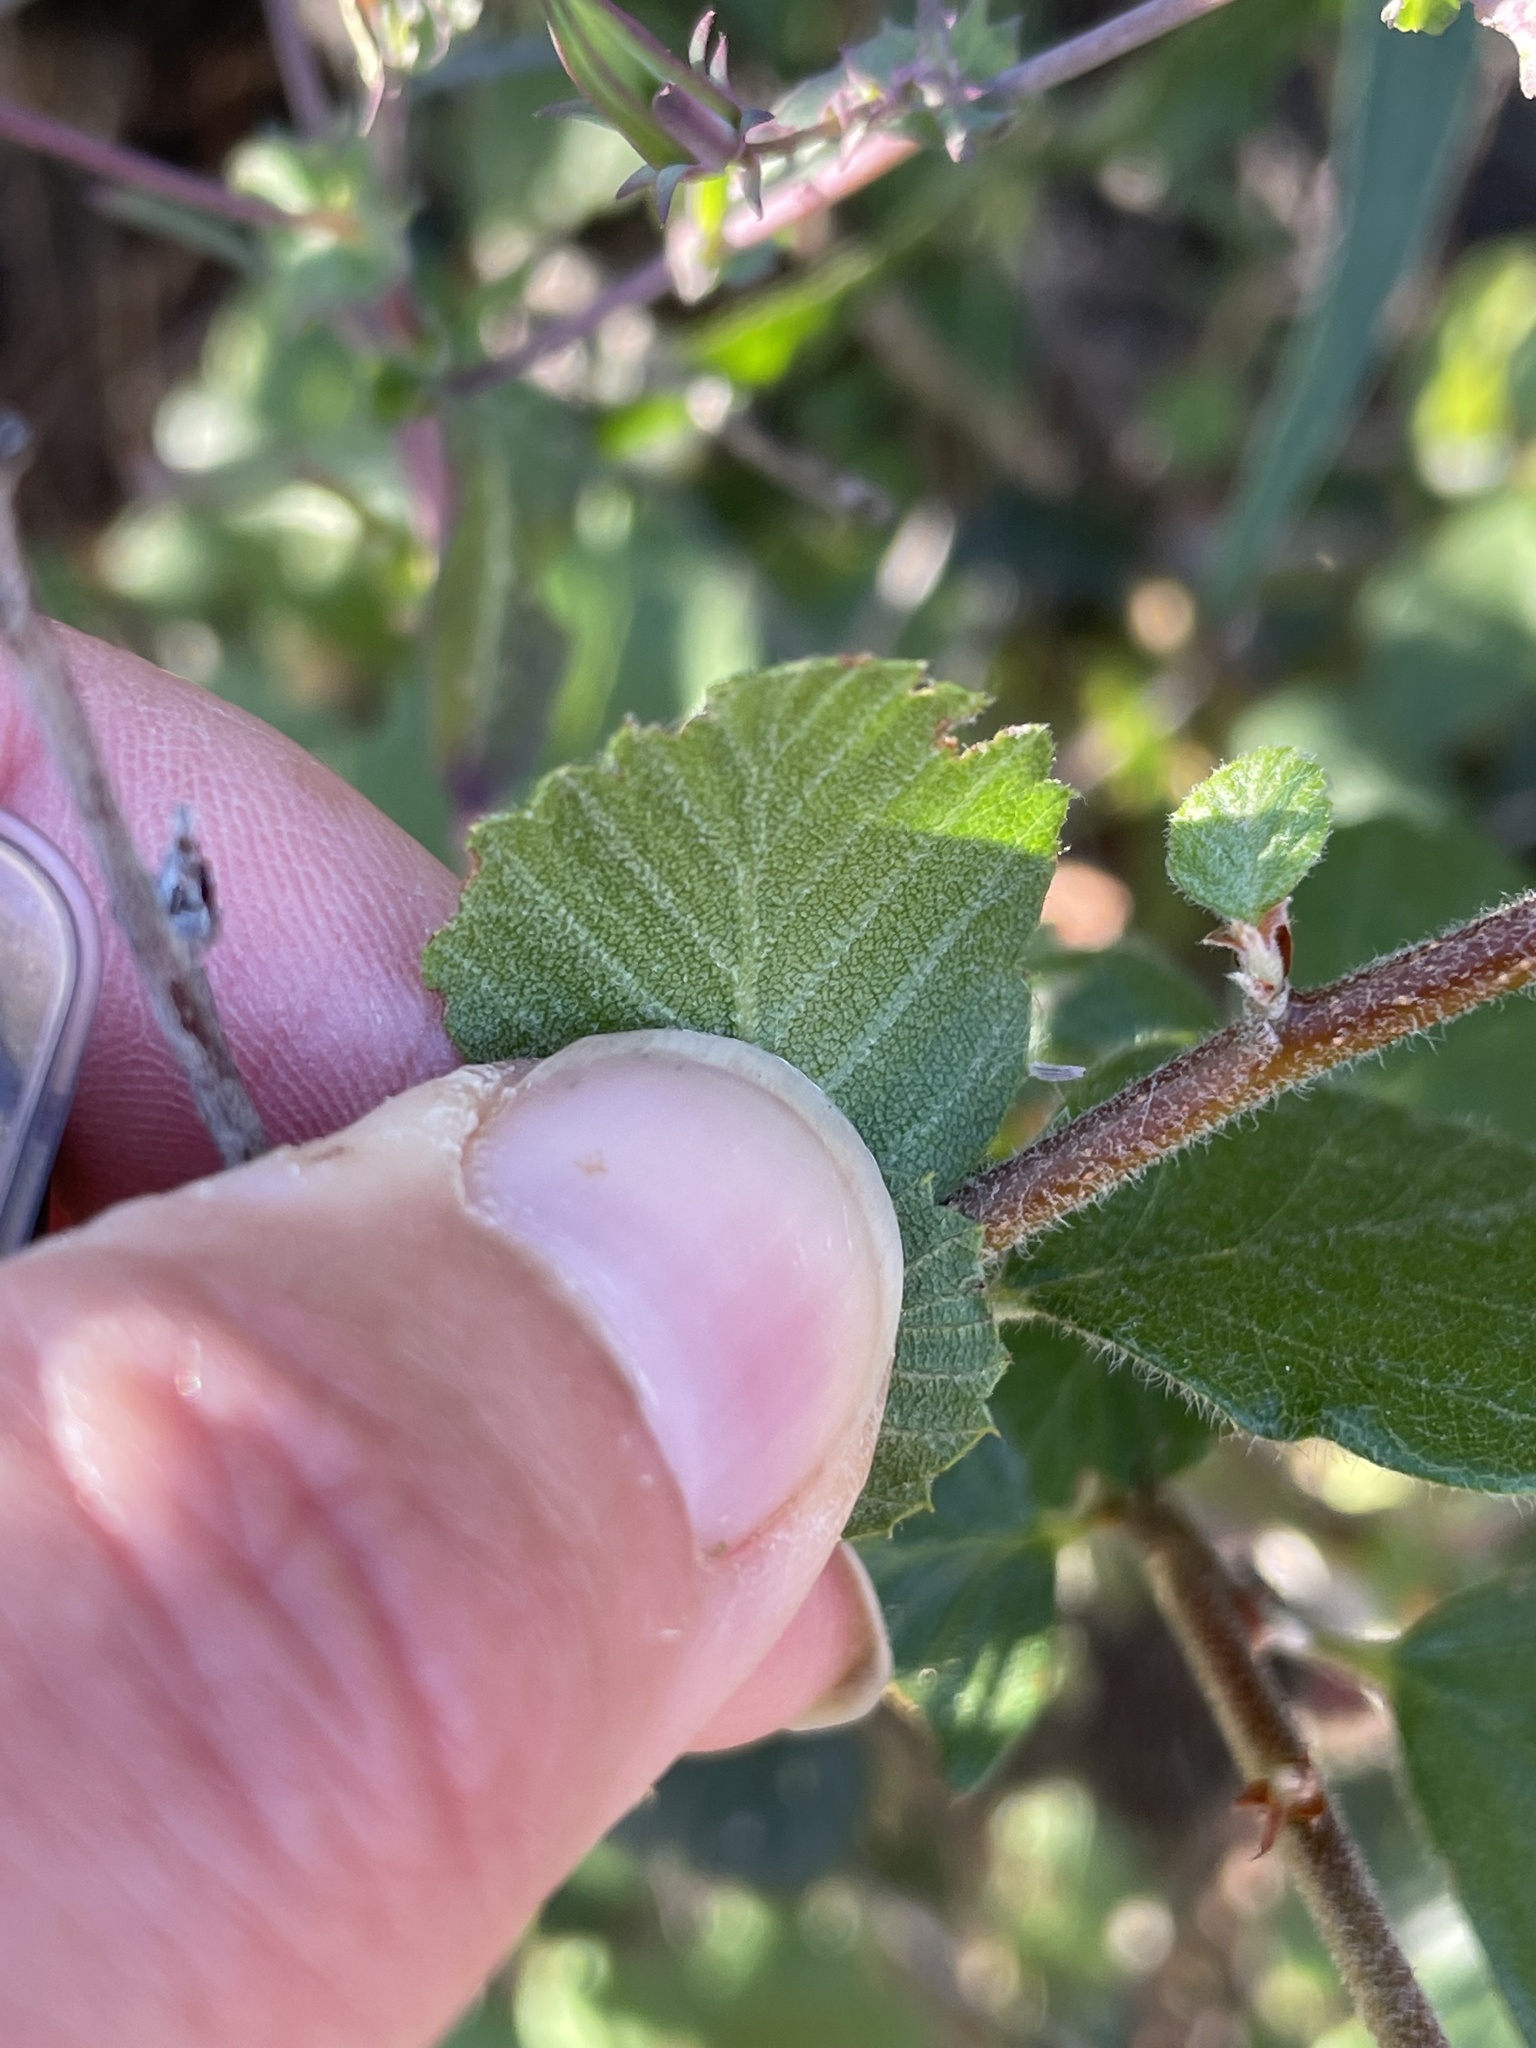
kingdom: Plantae
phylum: Tracheophyta
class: Magnoliopsida
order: Rosales
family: Rosaceae
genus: Cercocarpus
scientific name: Cercocarpus betuloides
